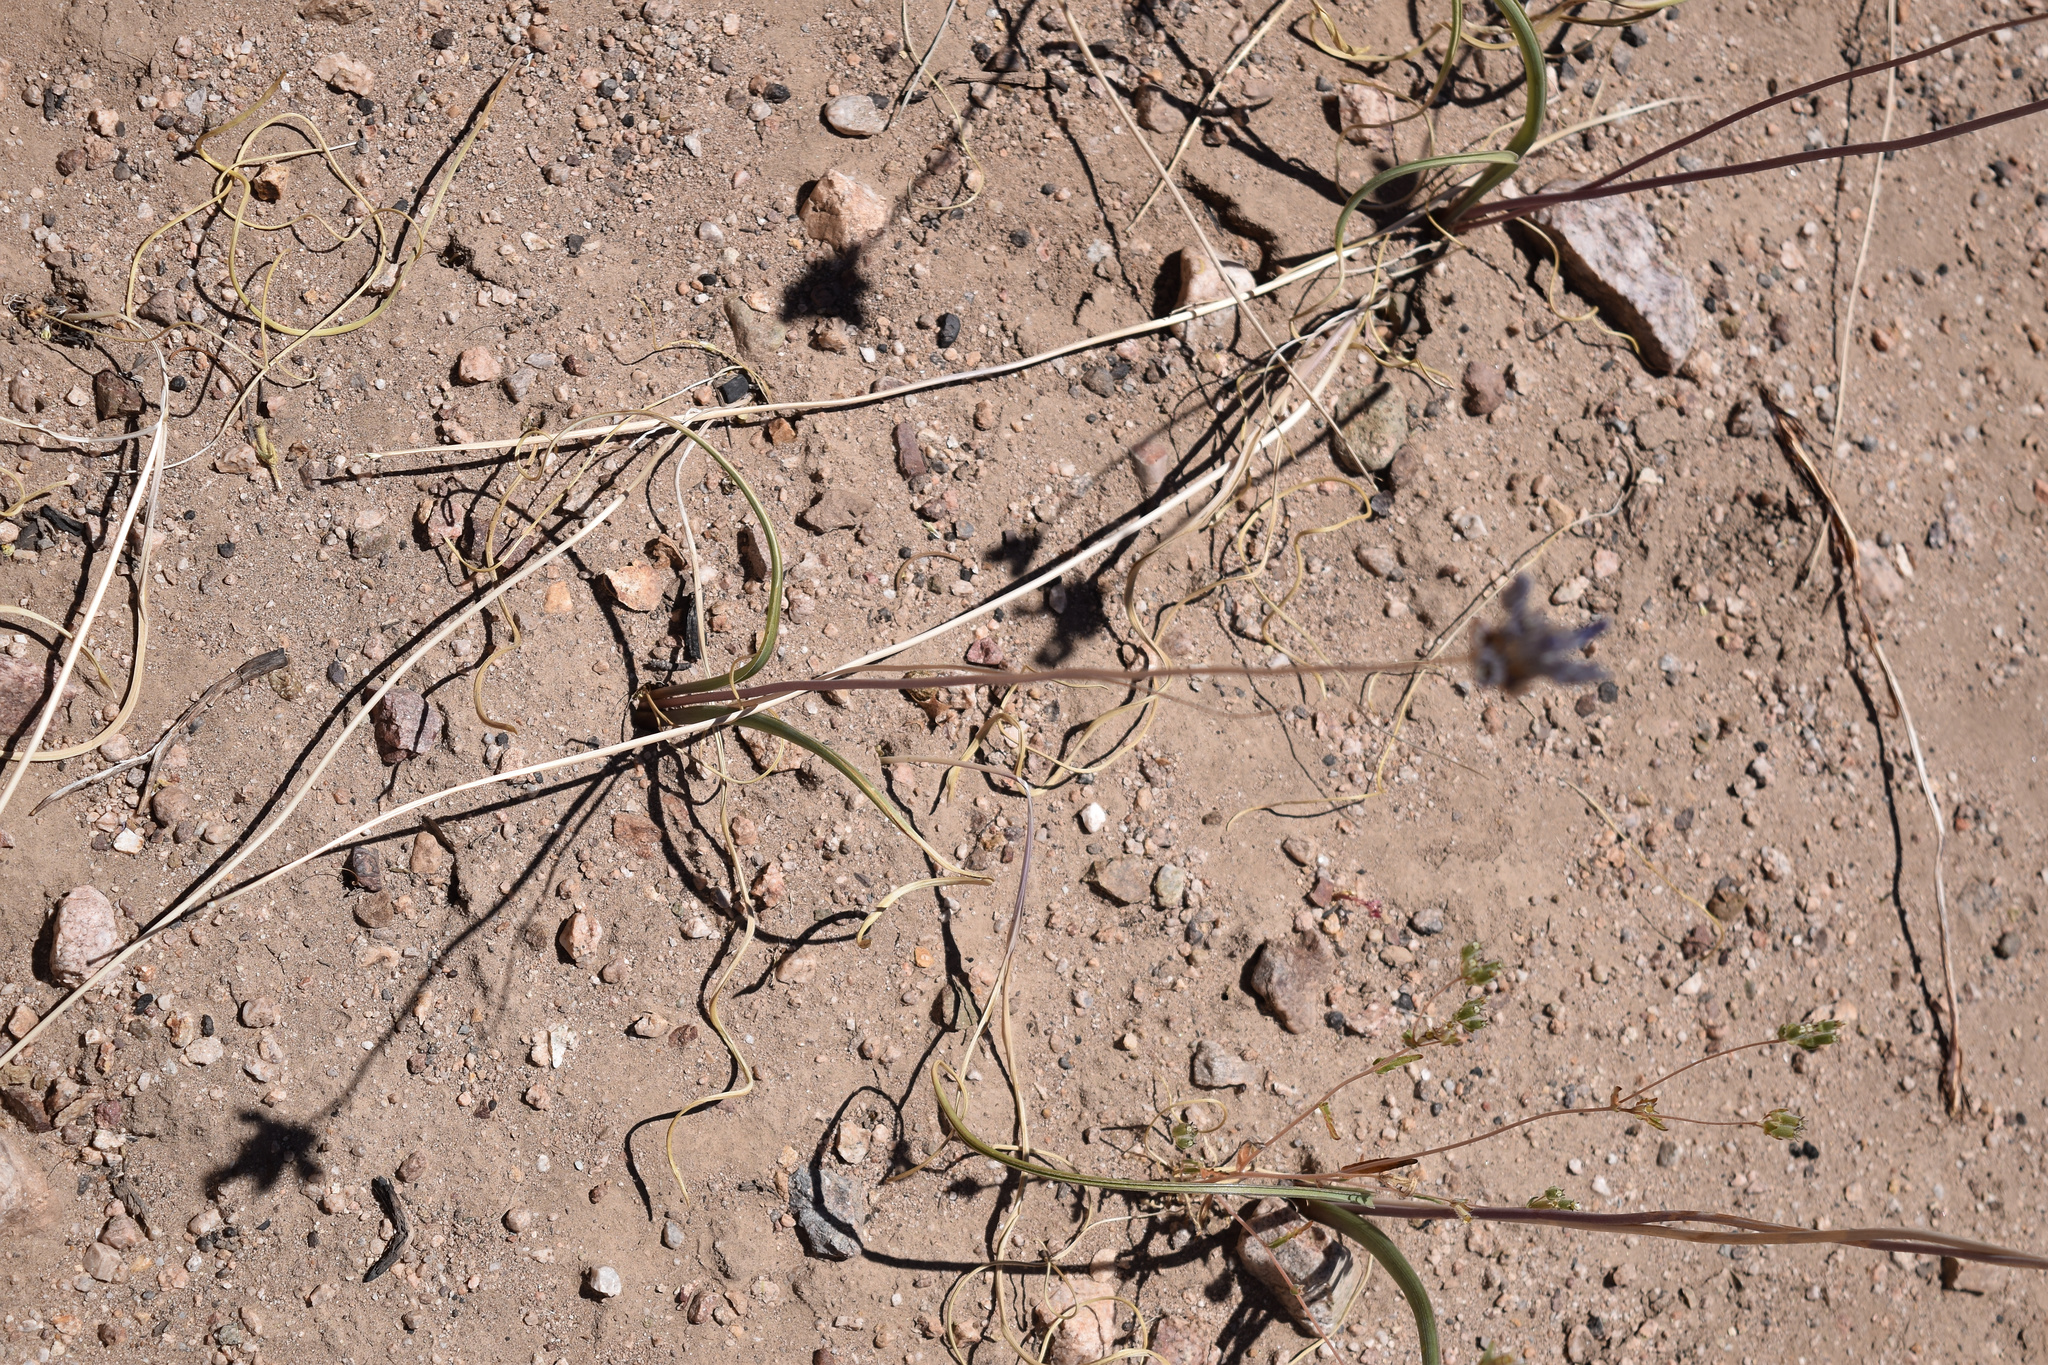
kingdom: Plantae
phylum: Tracheophyta
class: Liliopsida
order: Asparagales
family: Asparagaceae
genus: Dipterostemon
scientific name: Dipterostemon capitatus
